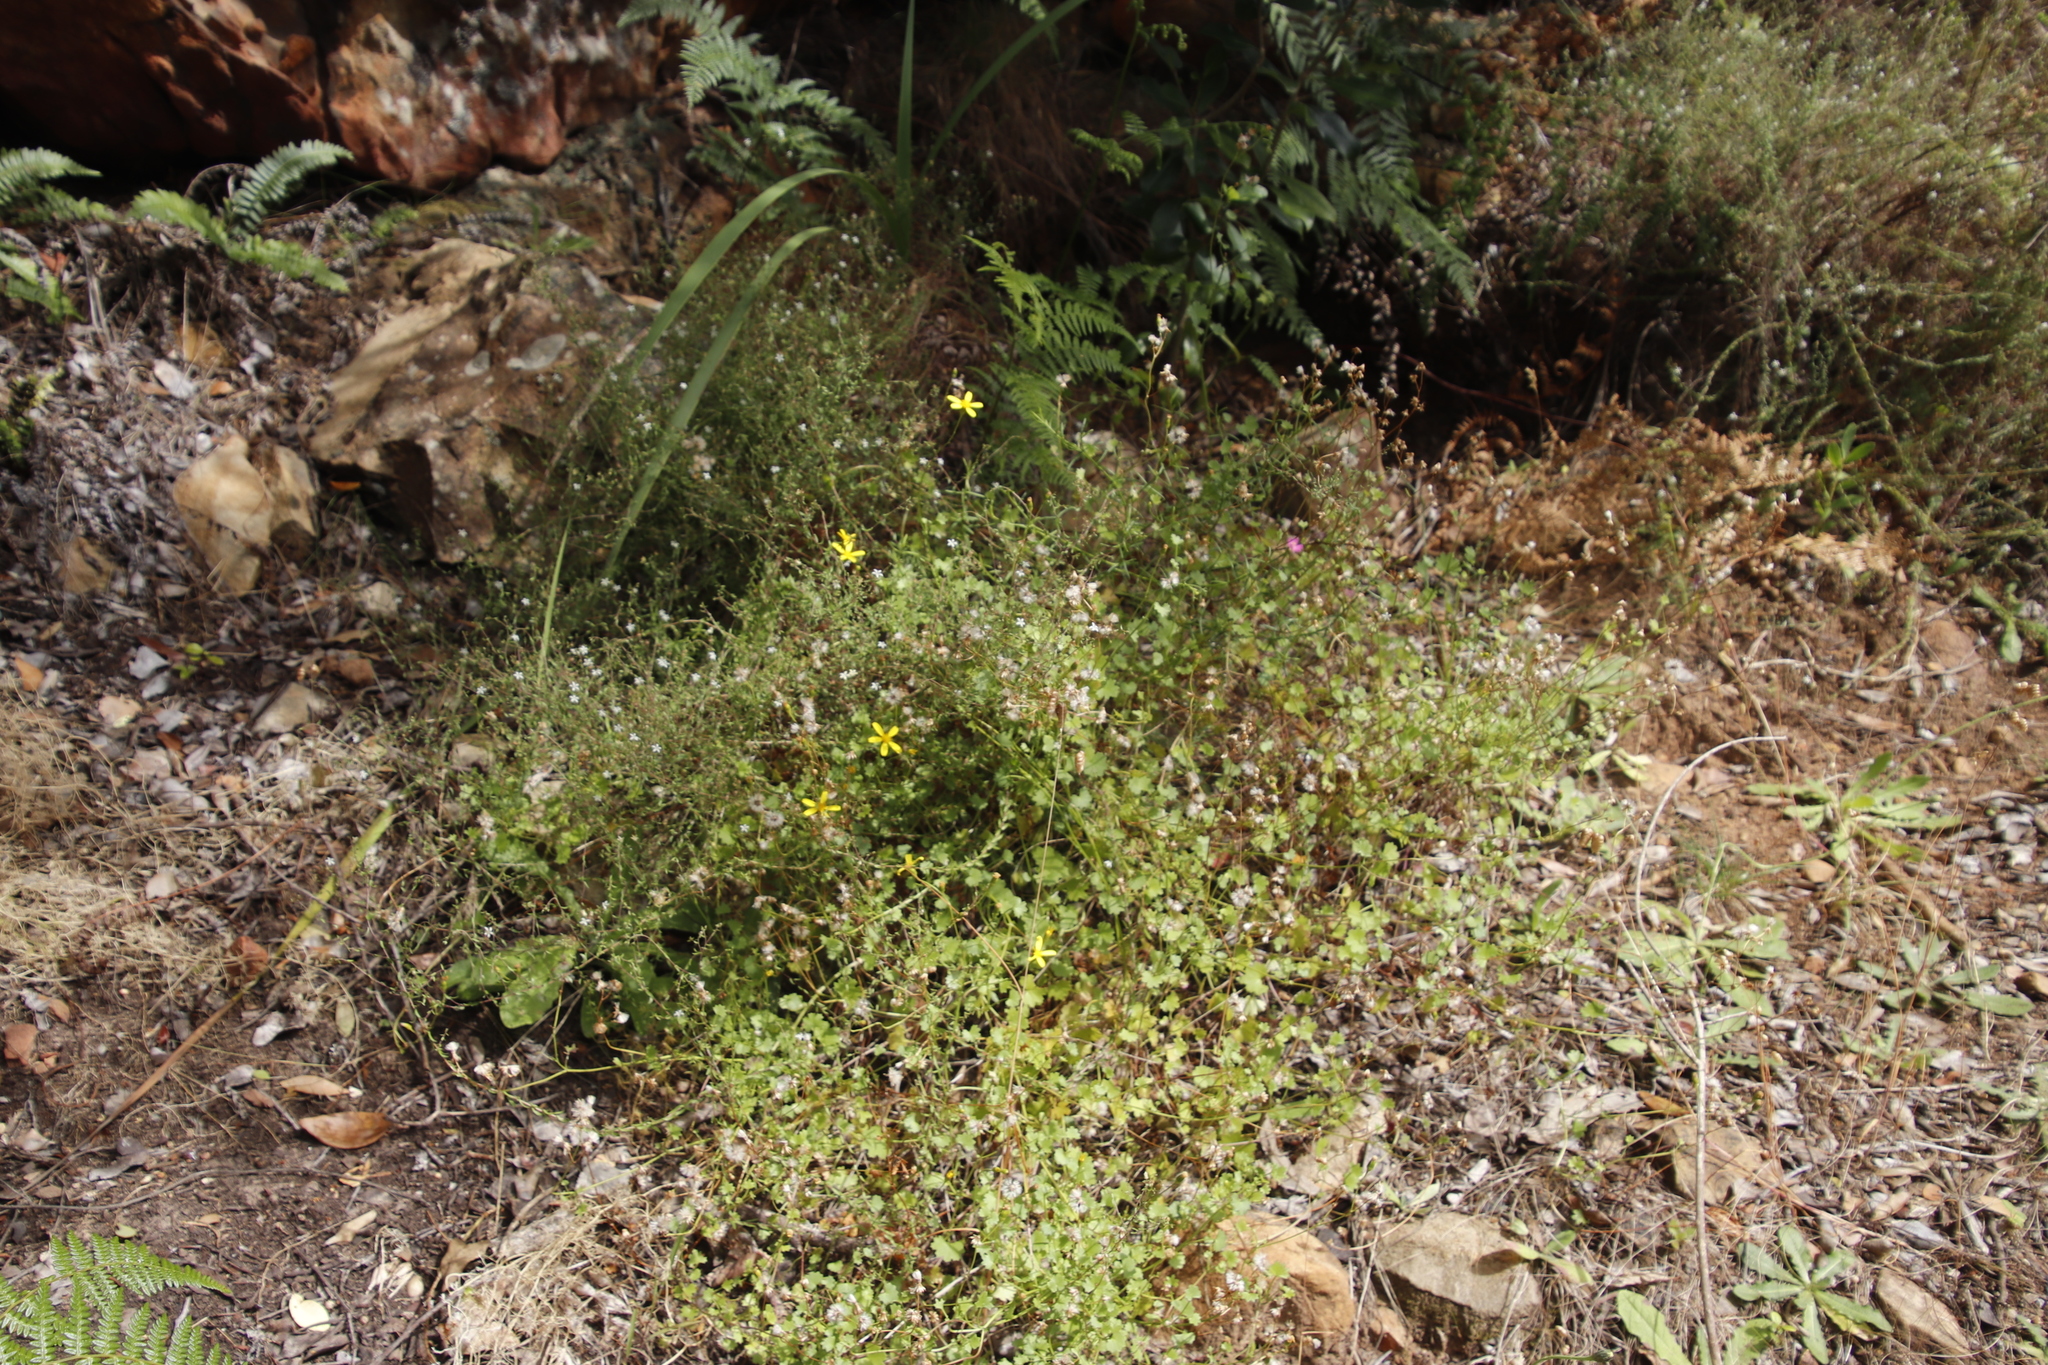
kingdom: Plantae
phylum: Tracheophyta
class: Magnoliopsida
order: Asterales
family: Campanulaceae
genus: Wahlenbergia
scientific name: Wahlenbergia parvifolia
